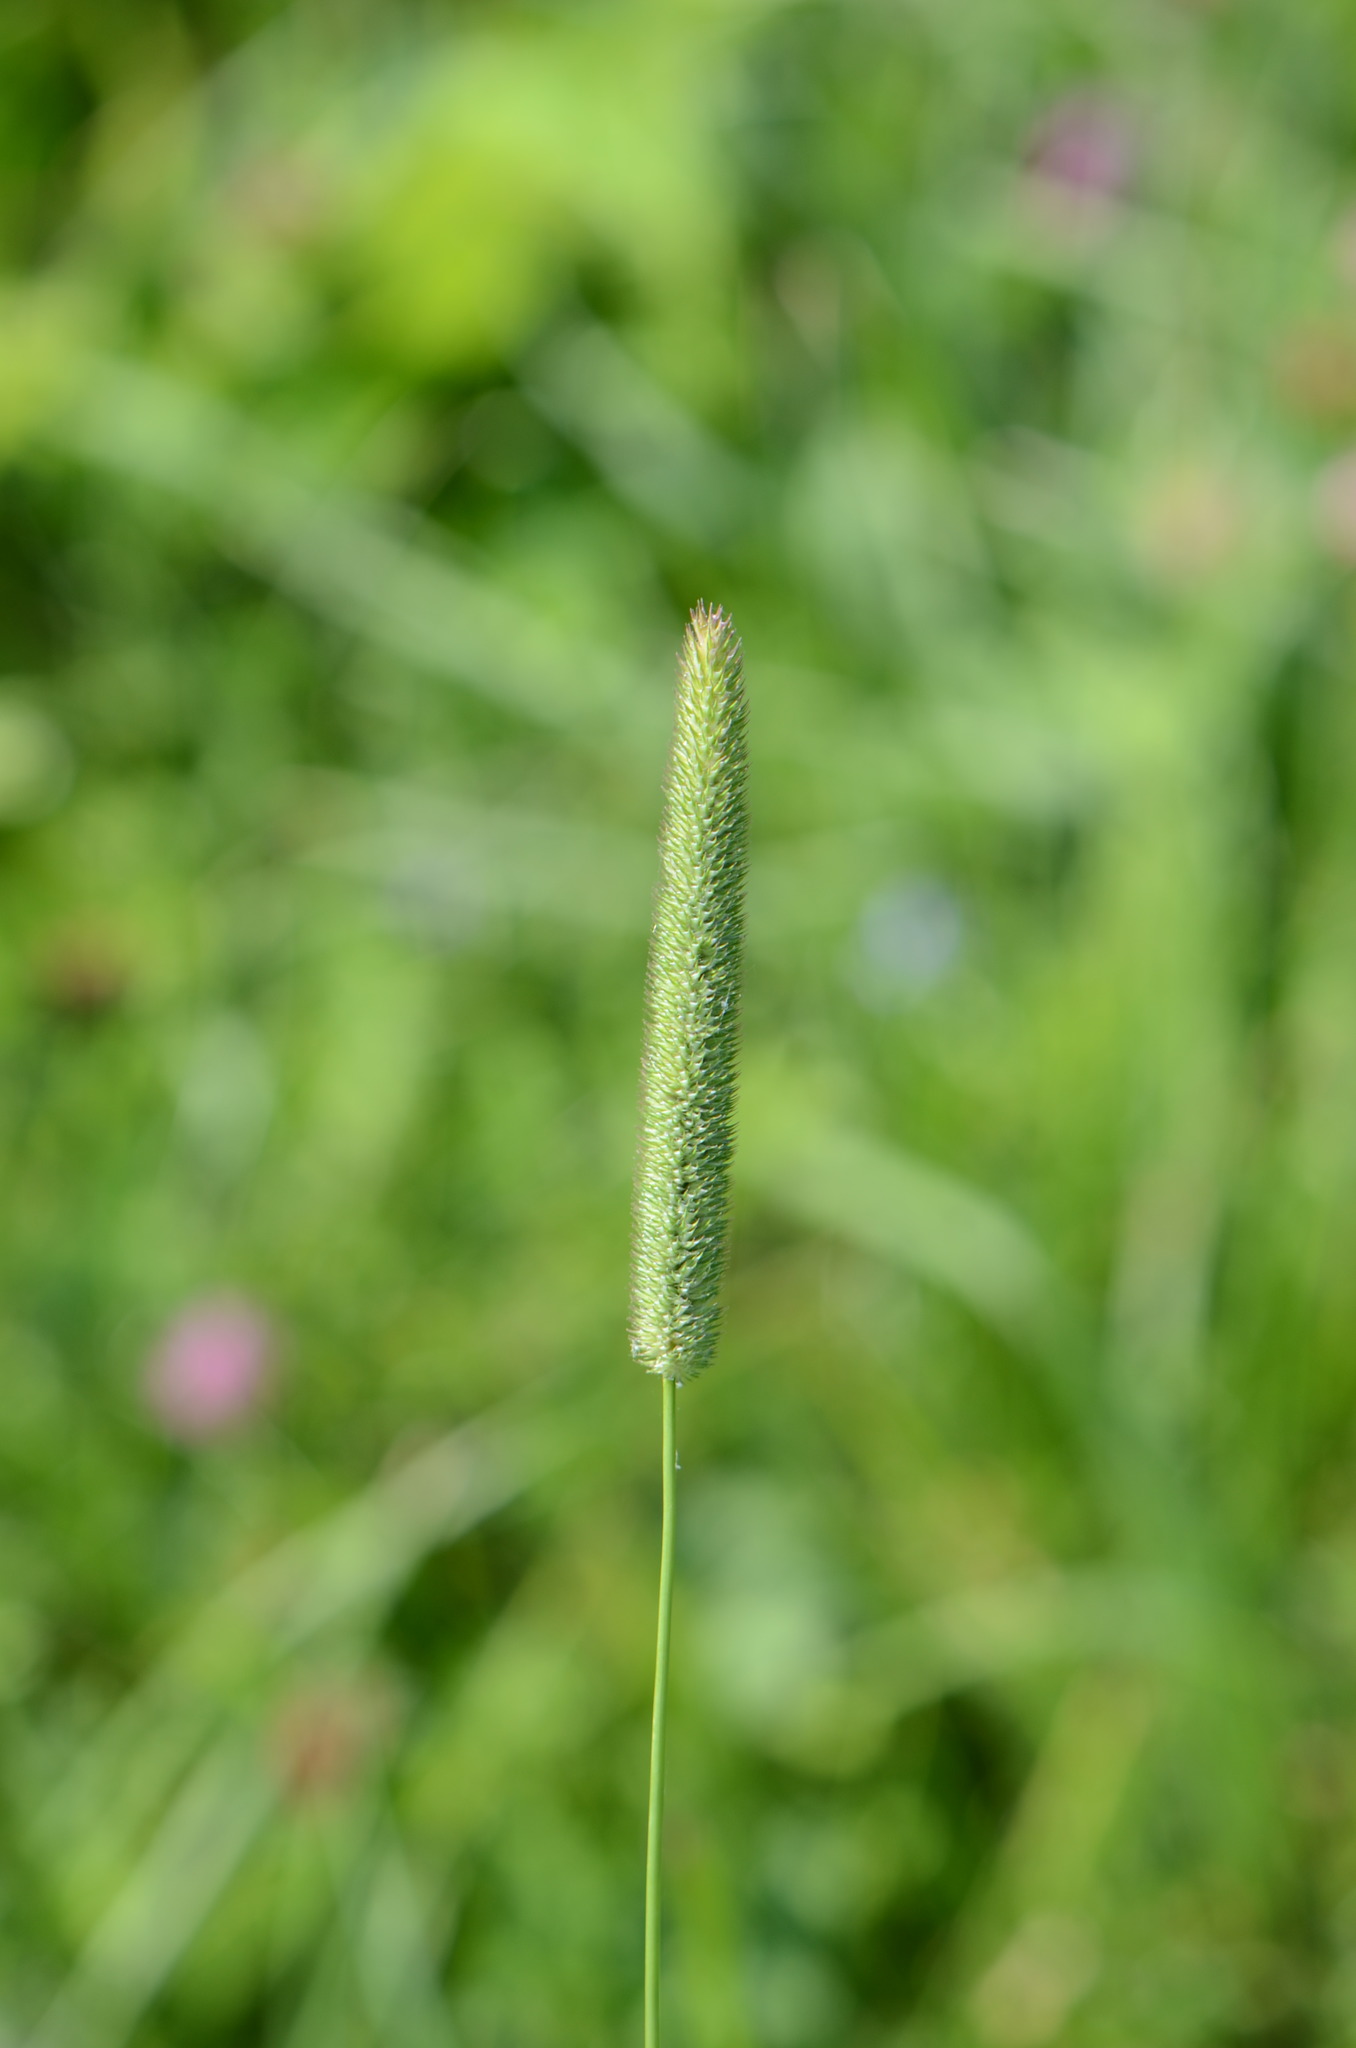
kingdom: Plantae
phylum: Tracheophyta
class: Liliopsida
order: Poales
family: Poaceae
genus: Phleum
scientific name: Phleum pratense
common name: Timothy grass
